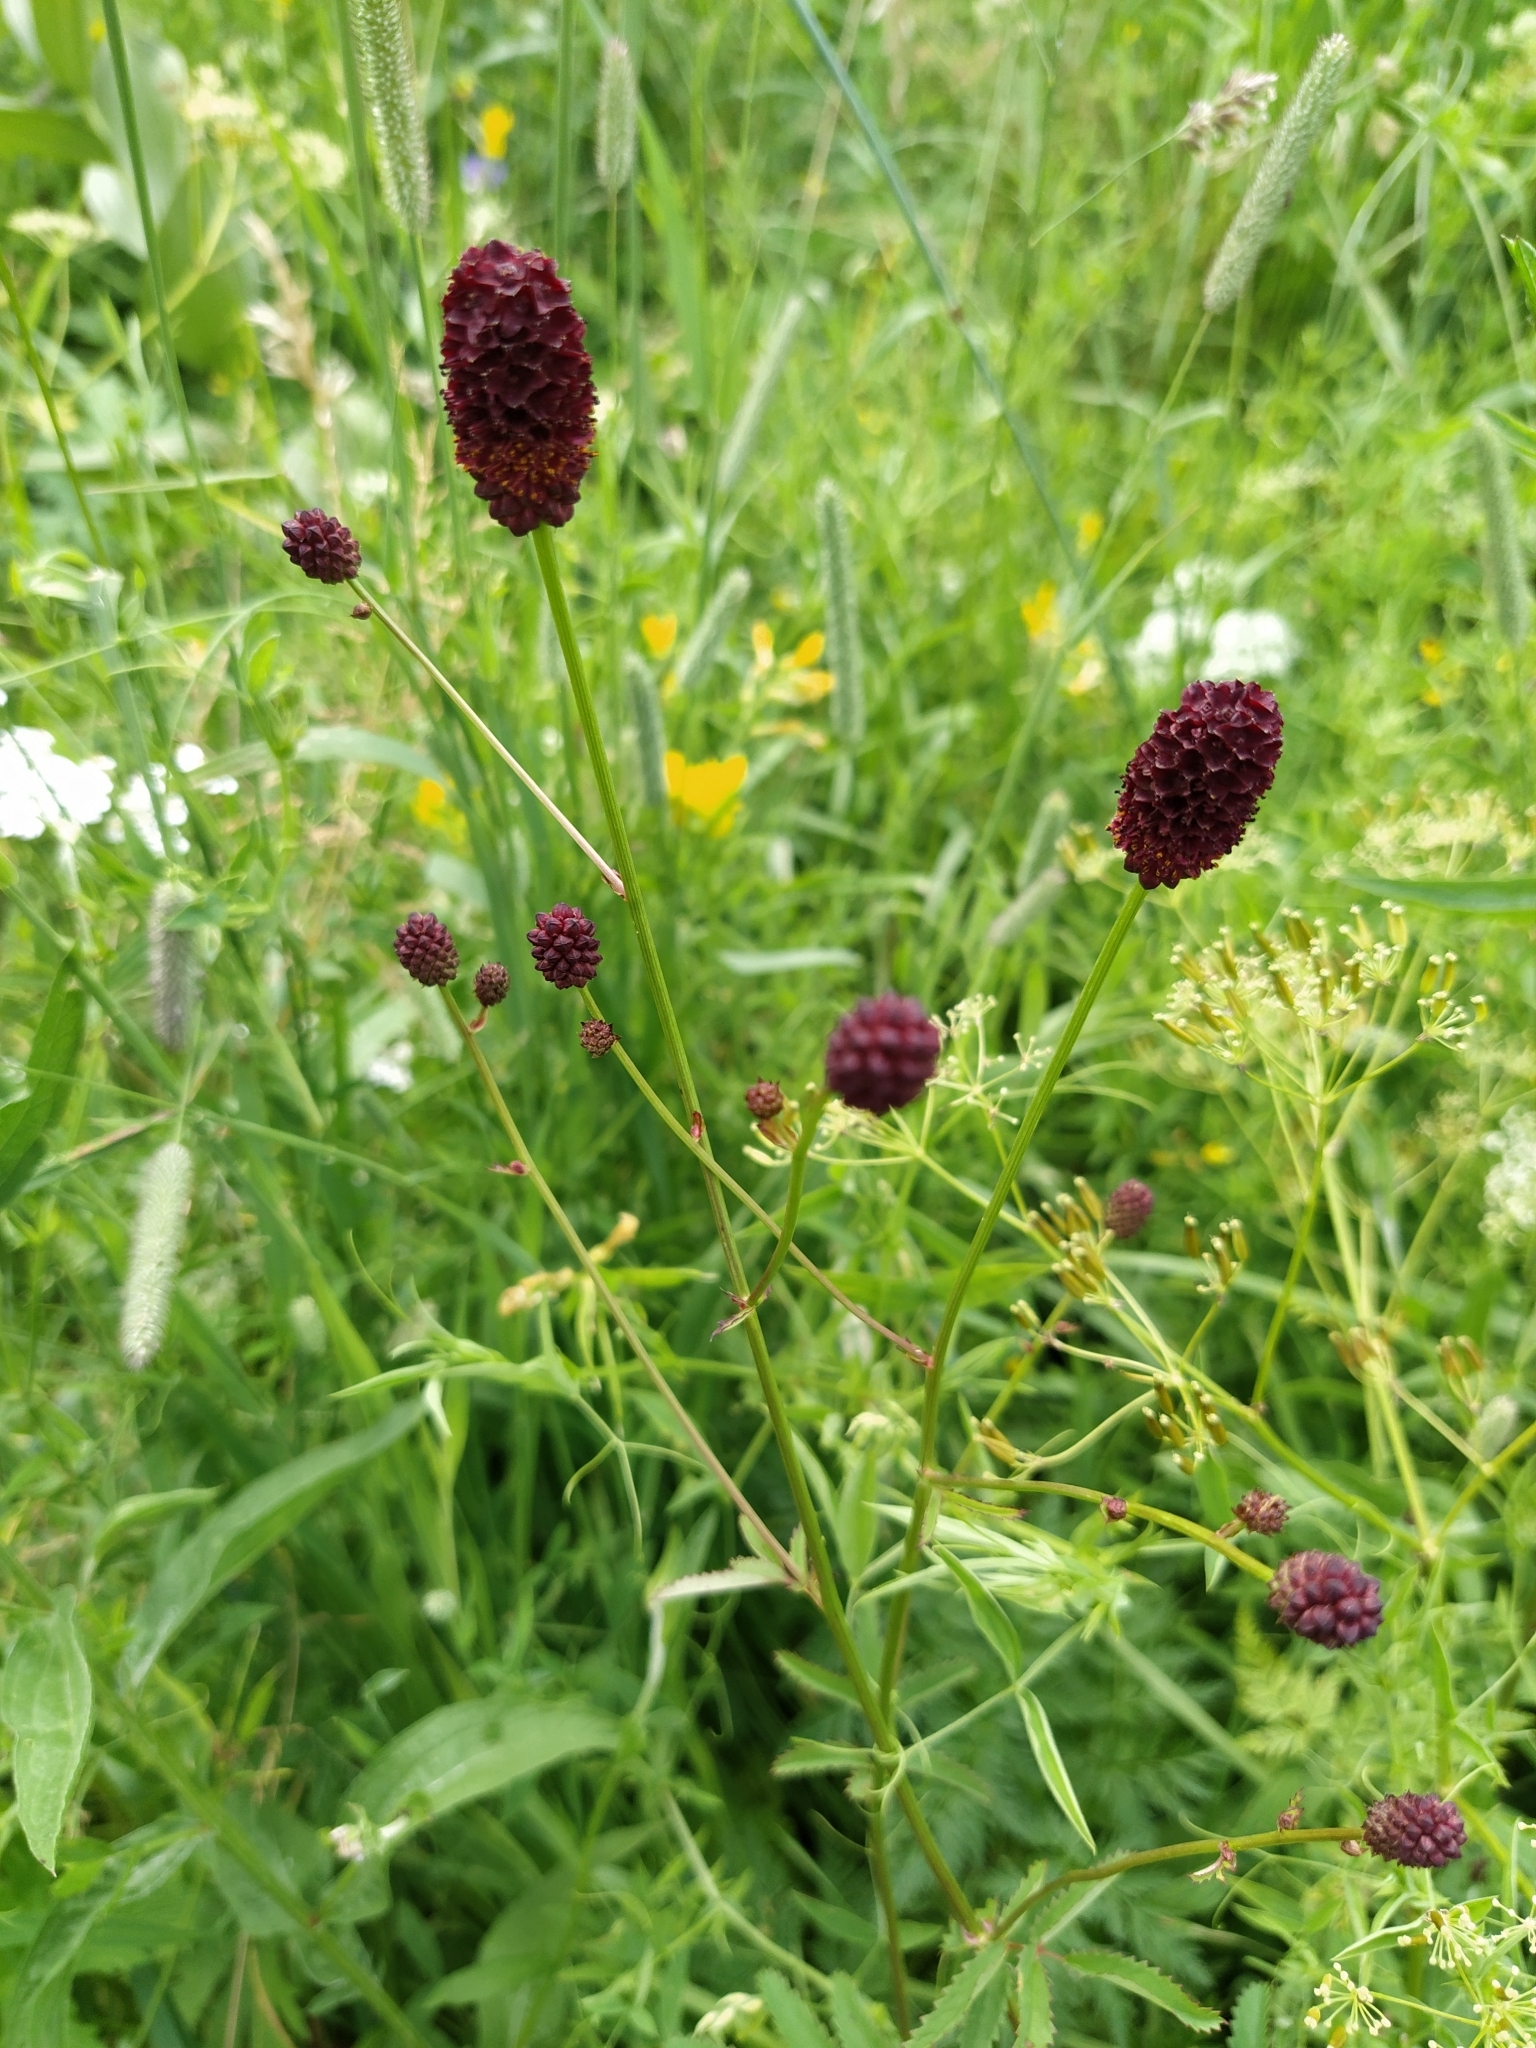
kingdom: Plantae
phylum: Tracheophyta
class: Magnoliopsida
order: Rosales
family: Rosaceae
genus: Sanguisorba
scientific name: Sanguisorba officinalis
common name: Great burnet
